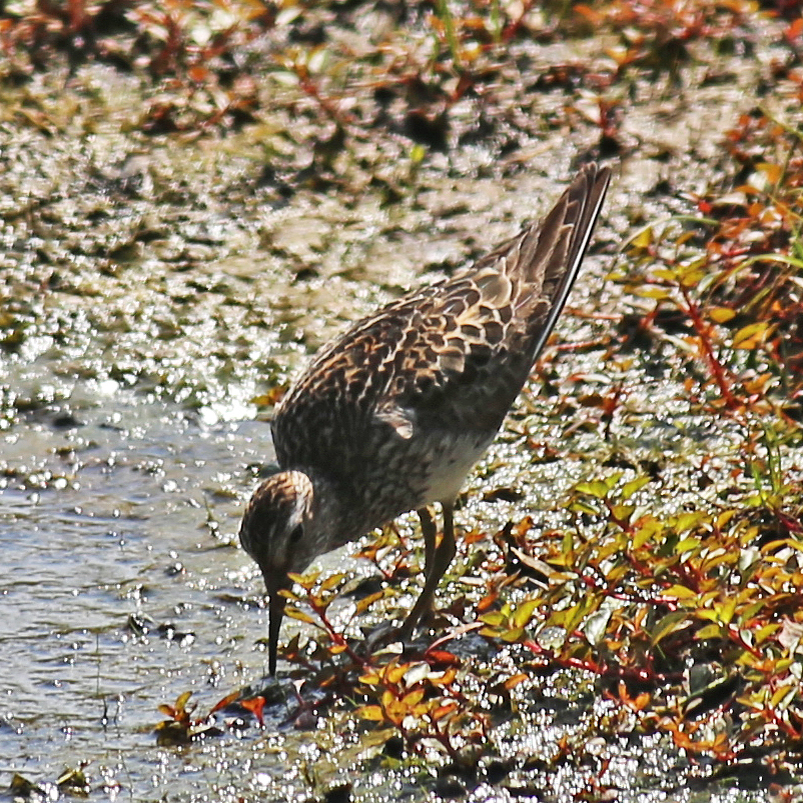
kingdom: Animalia
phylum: Chordata
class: Aves
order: Charadriiformes
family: Scolopacidae
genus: Calidris
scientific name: Calidris melanotos
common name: Pectoral sandpiper
